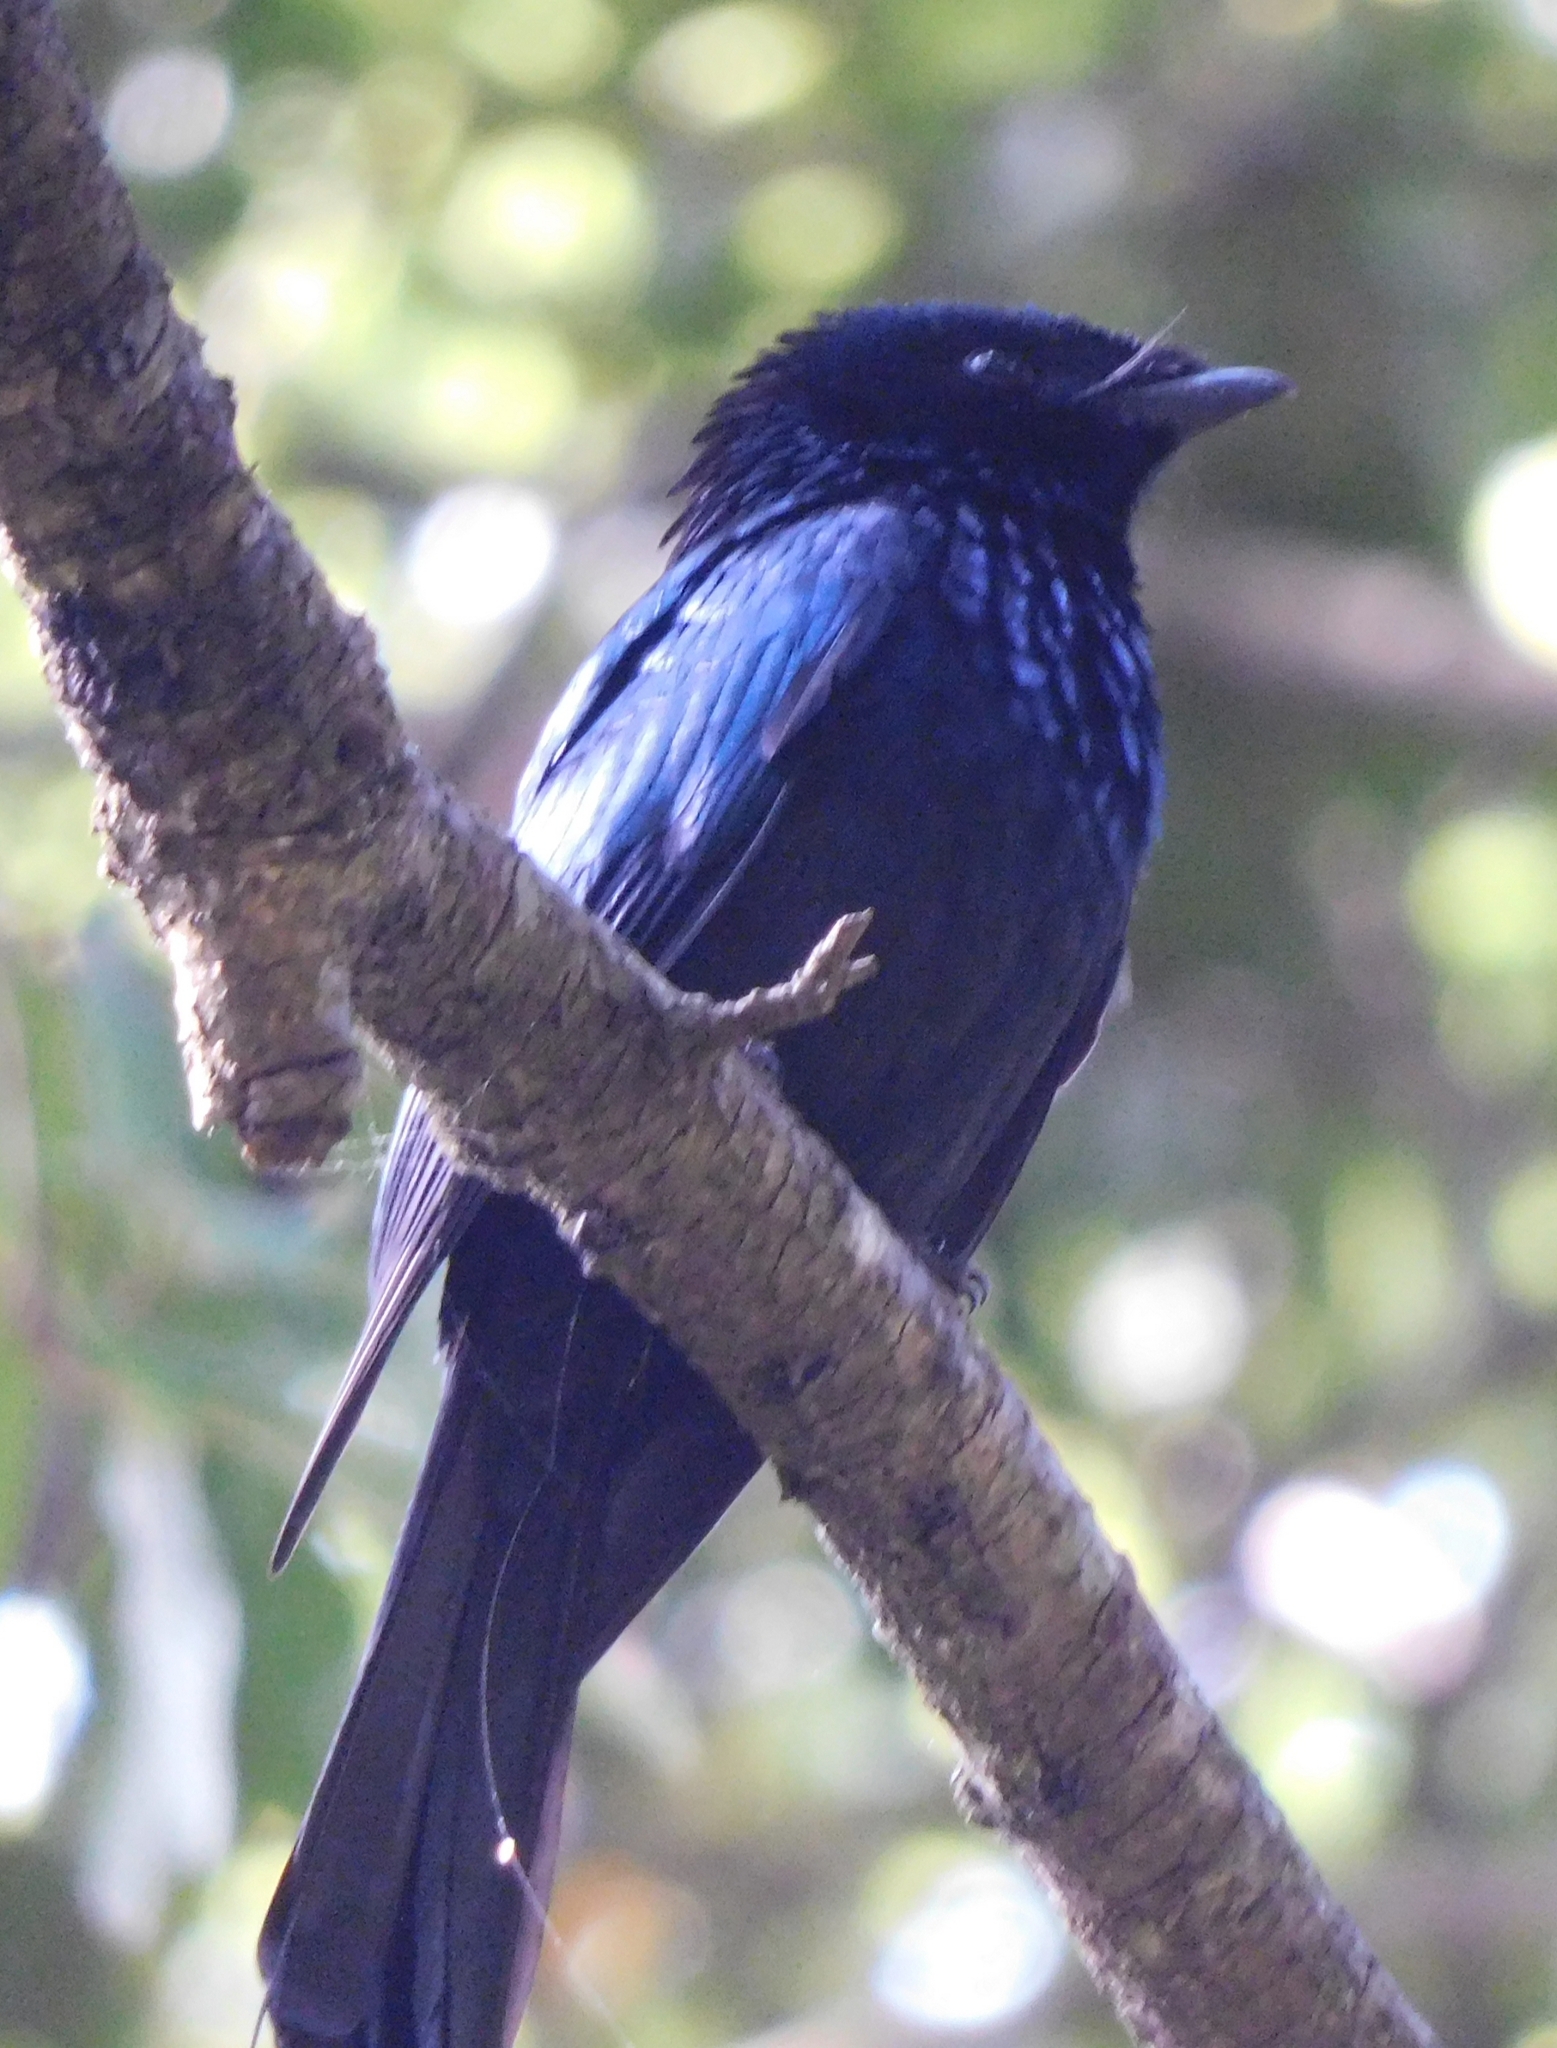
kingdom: Animalia
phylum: Chordata
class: Aves
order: Passeriformes
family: Dicruridae
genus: Dicrurus
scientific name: Dicrurus remifer
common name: Lesser racket-tailed drongo
